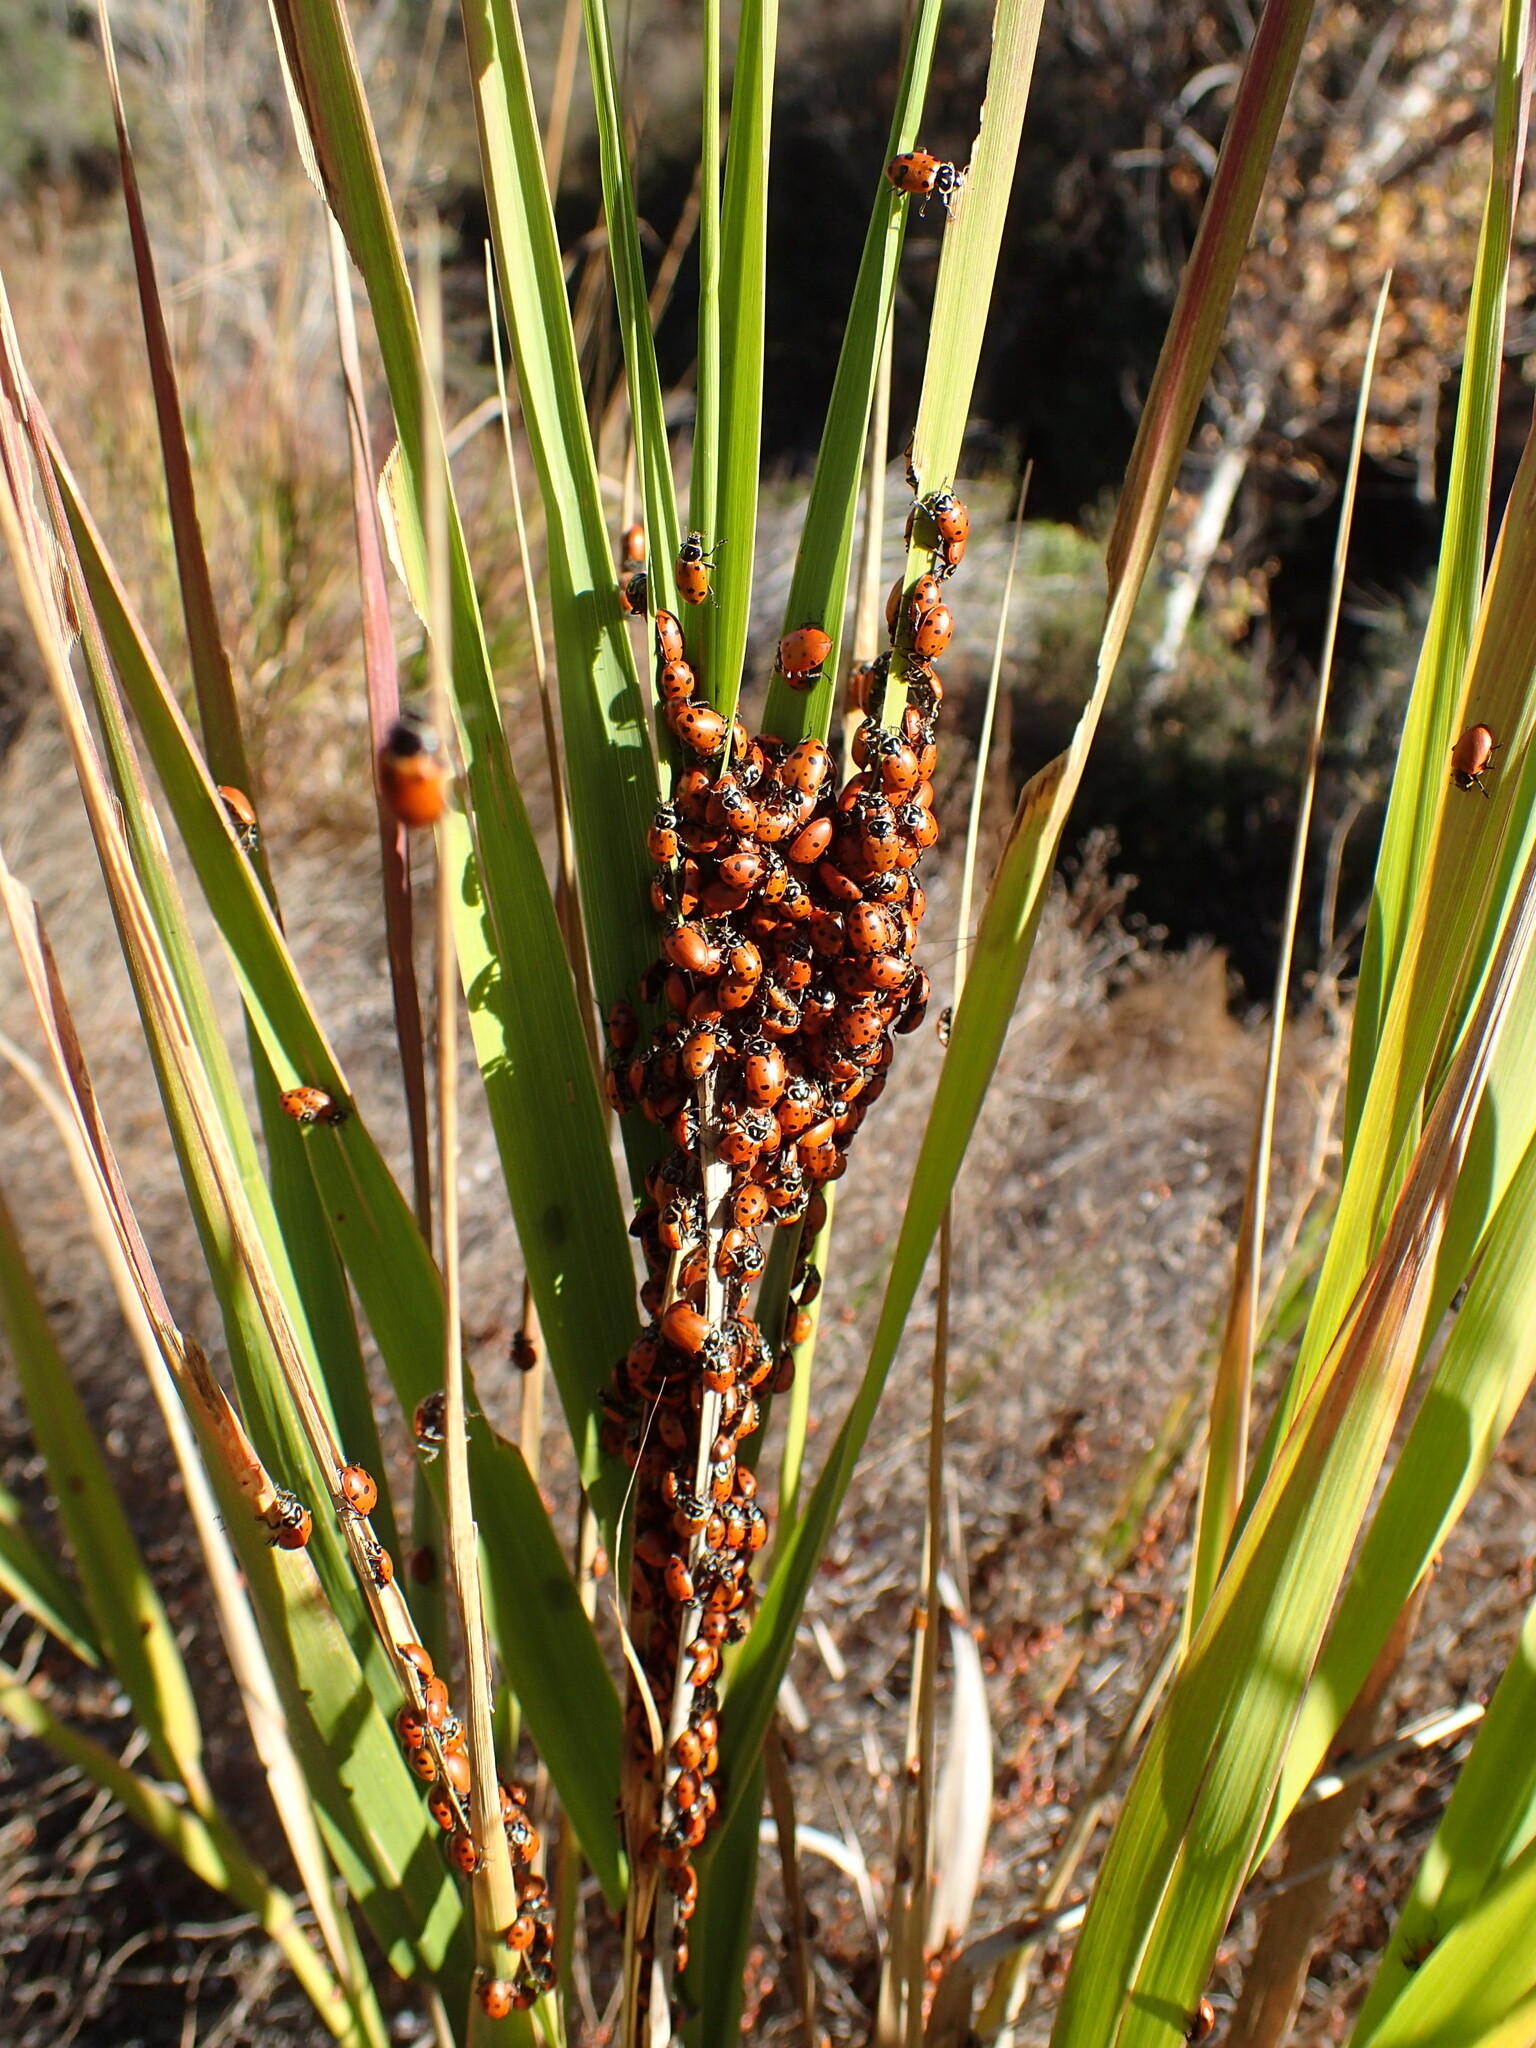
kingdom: Animalia
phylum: Arthropoda
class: Insecta
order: Coleoptera
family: Coccinellidae
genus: Hippodamia
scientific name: Hippodamia convergens
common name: Convergent lady beetle
